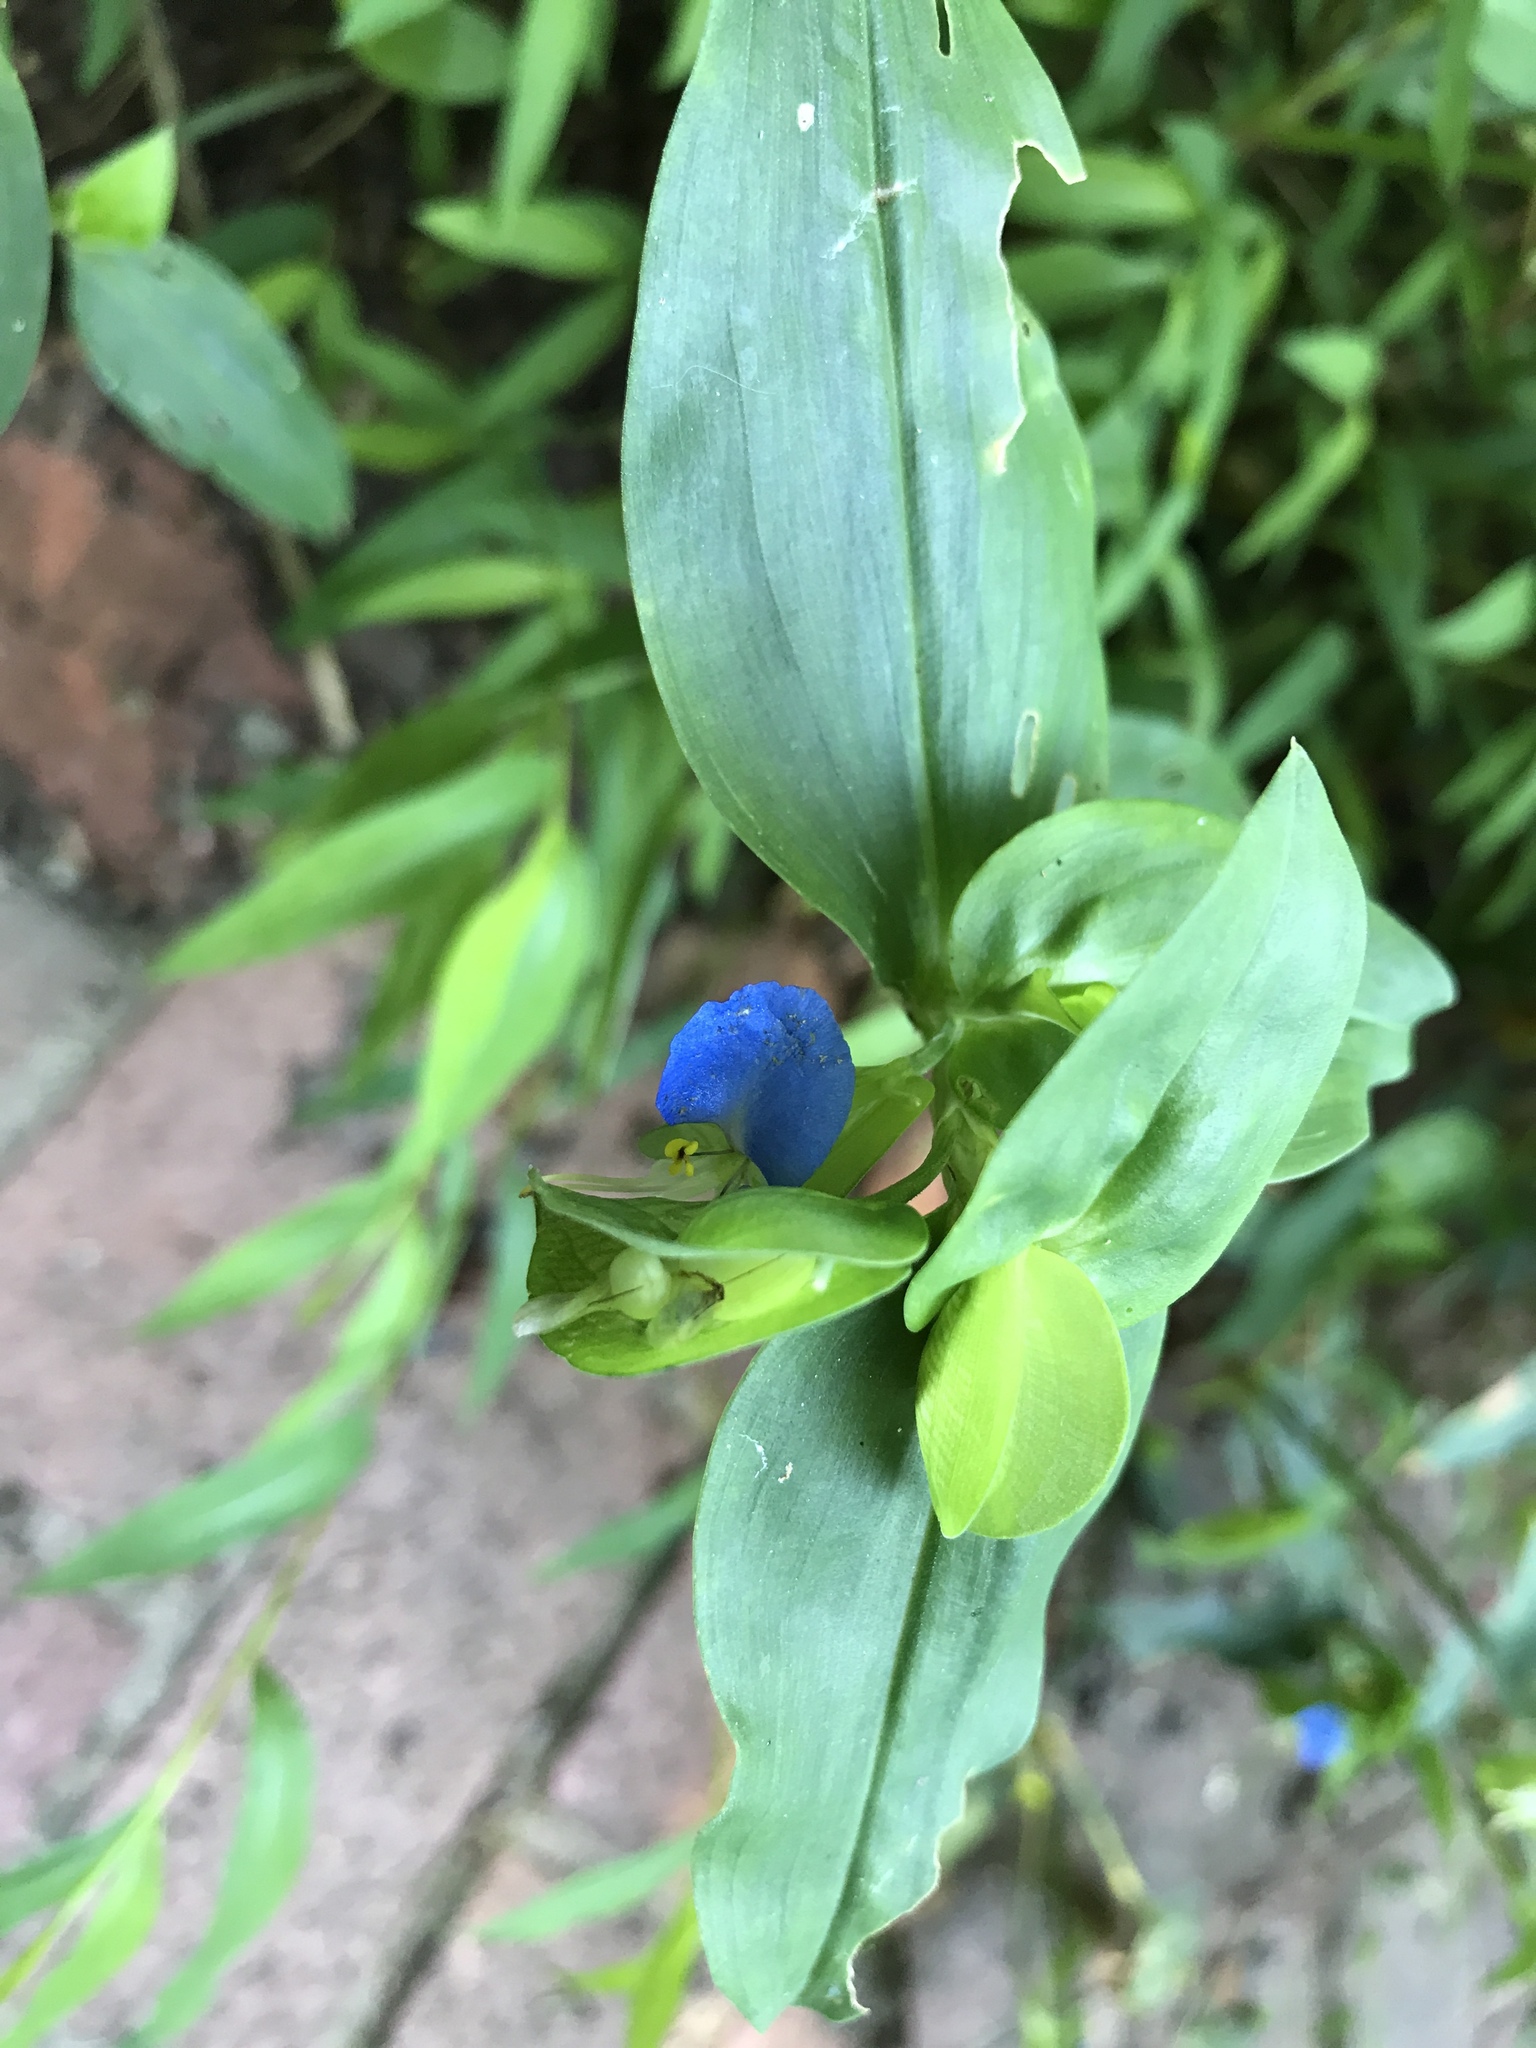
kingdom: Plantae
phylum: Tracheophyta
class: Liliopsida
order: Commelinales
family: Commelinaceae
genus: Commelina
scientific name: Commelina communis
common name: Asiatic dayflower
